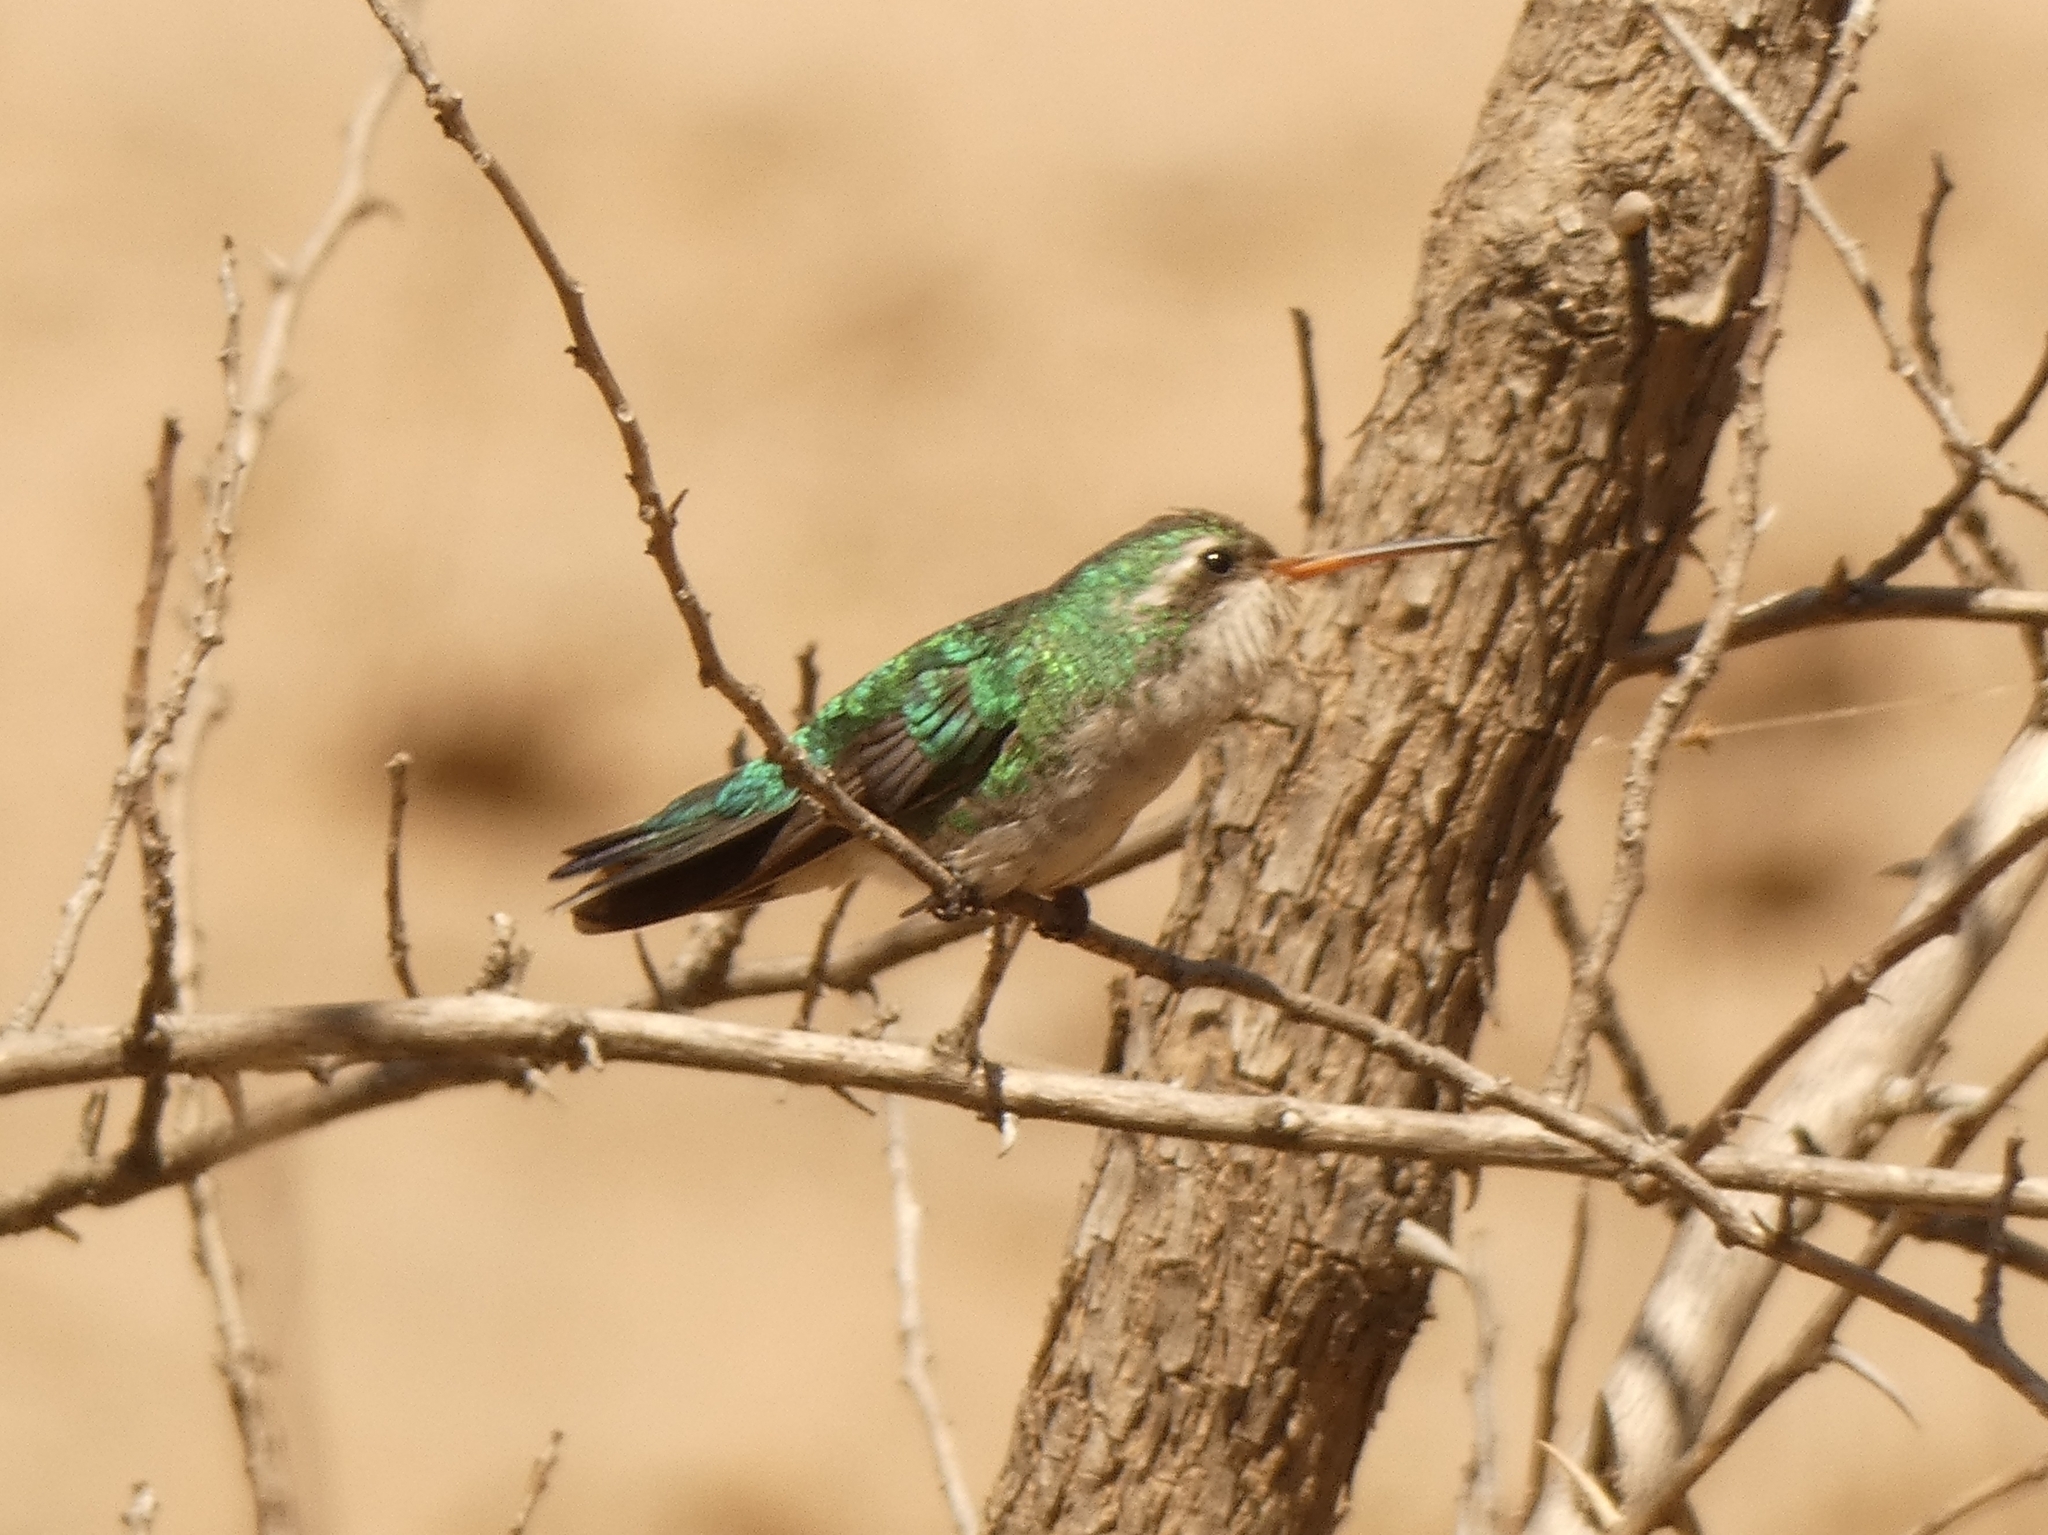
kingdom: Animalia
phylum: Chordata
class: Aves
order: Apodiformes
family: Trochilidae
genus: Chlorostilbon
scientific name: Chlorostilbon lucidus
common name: Glittering-bellied emerald
